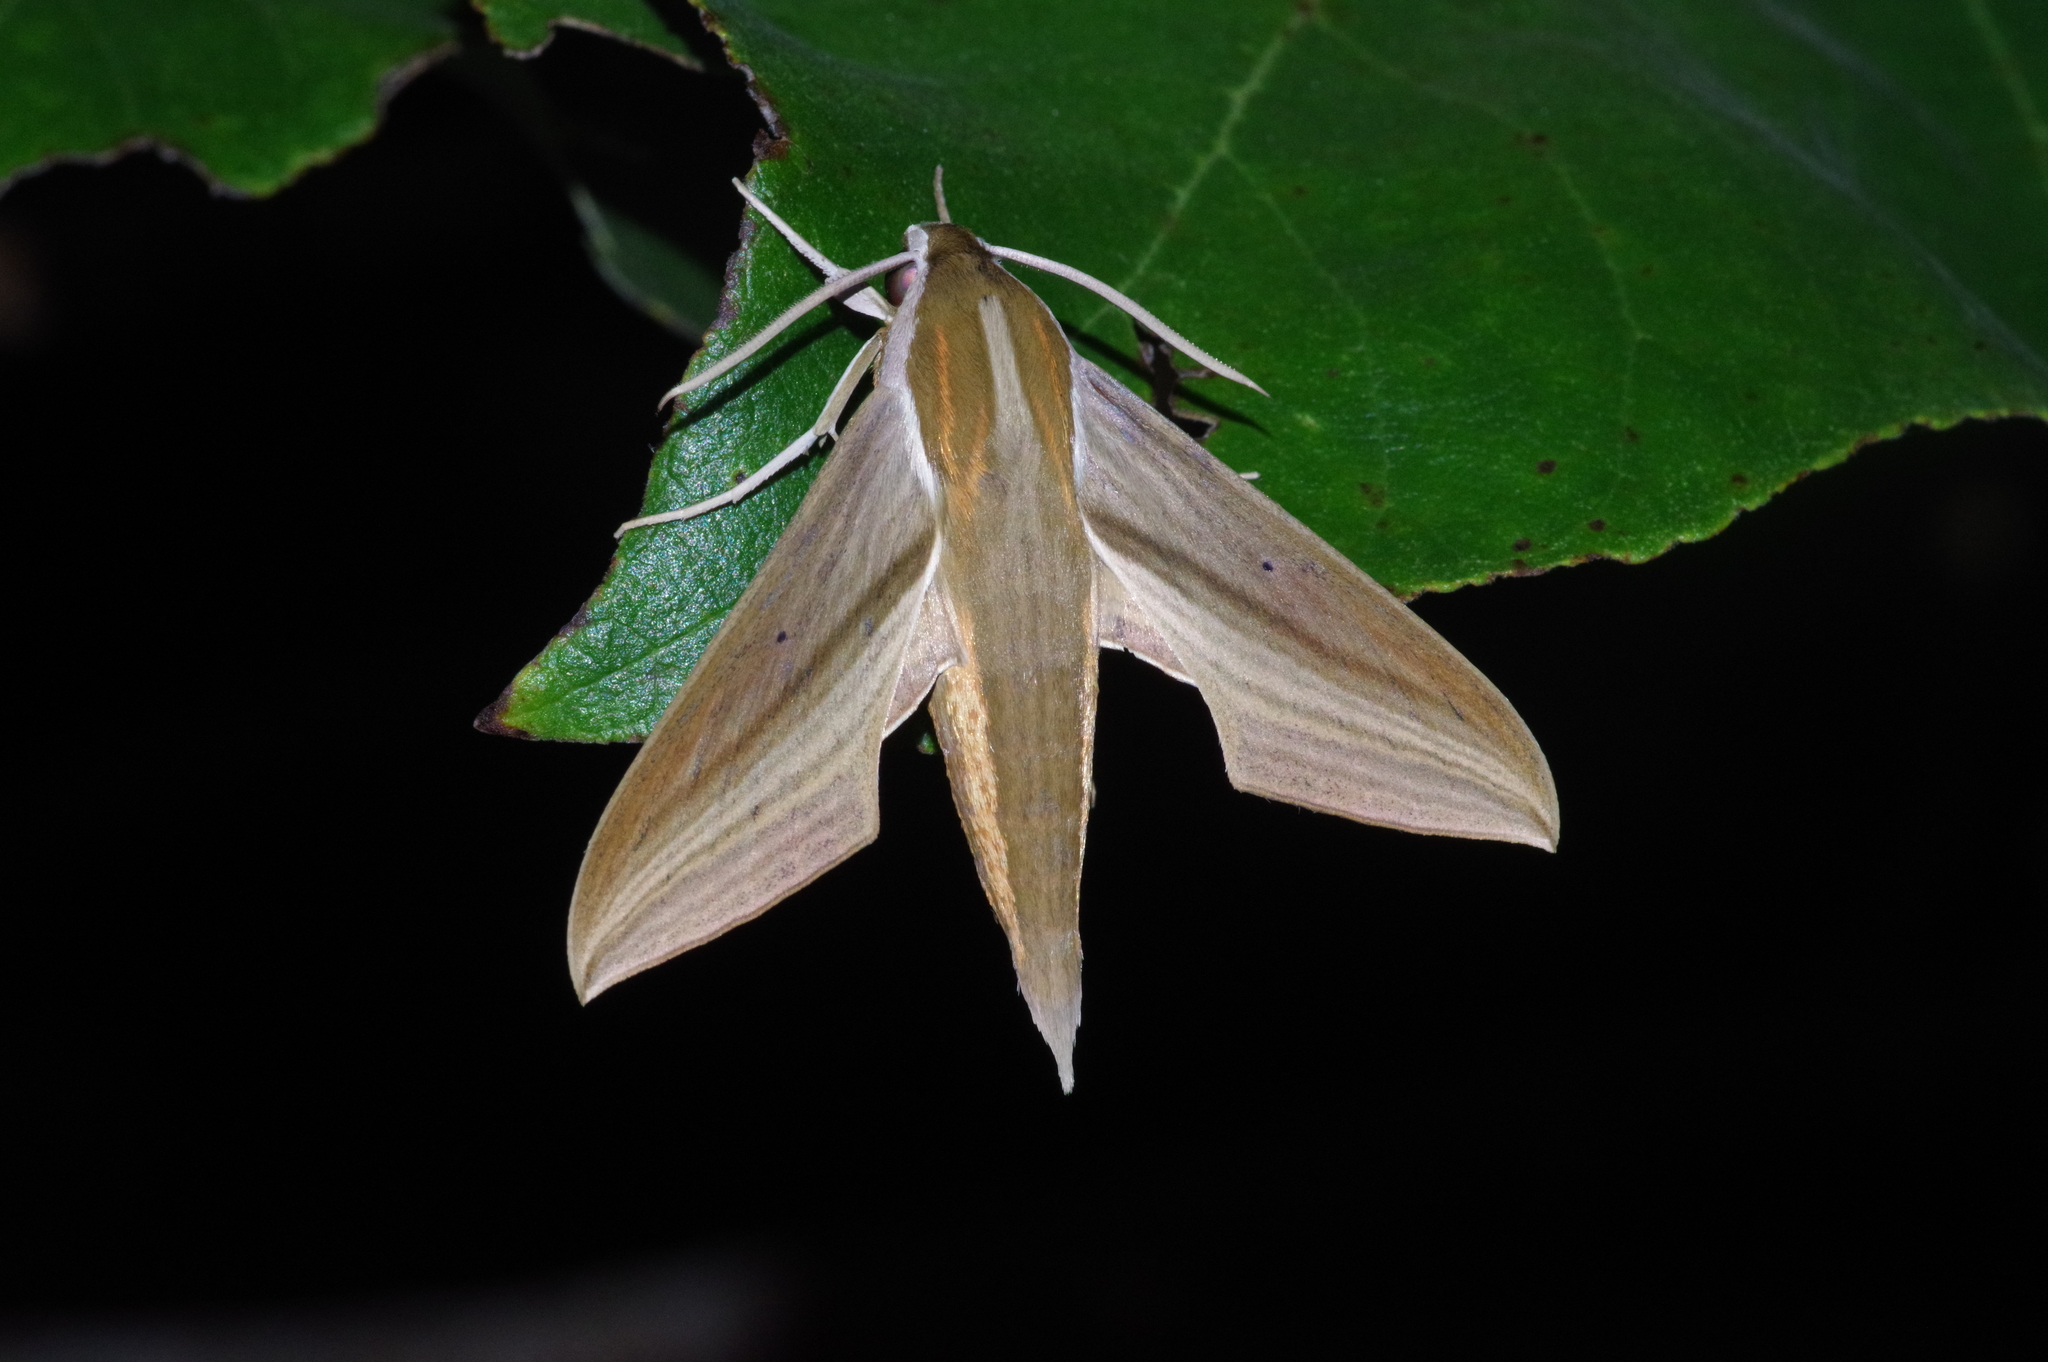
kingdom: Animalia
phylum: Arthropoda
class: Insecta
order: Lepidoptera
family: Sphingidae
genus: Theretra
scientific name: Theretra japonica
